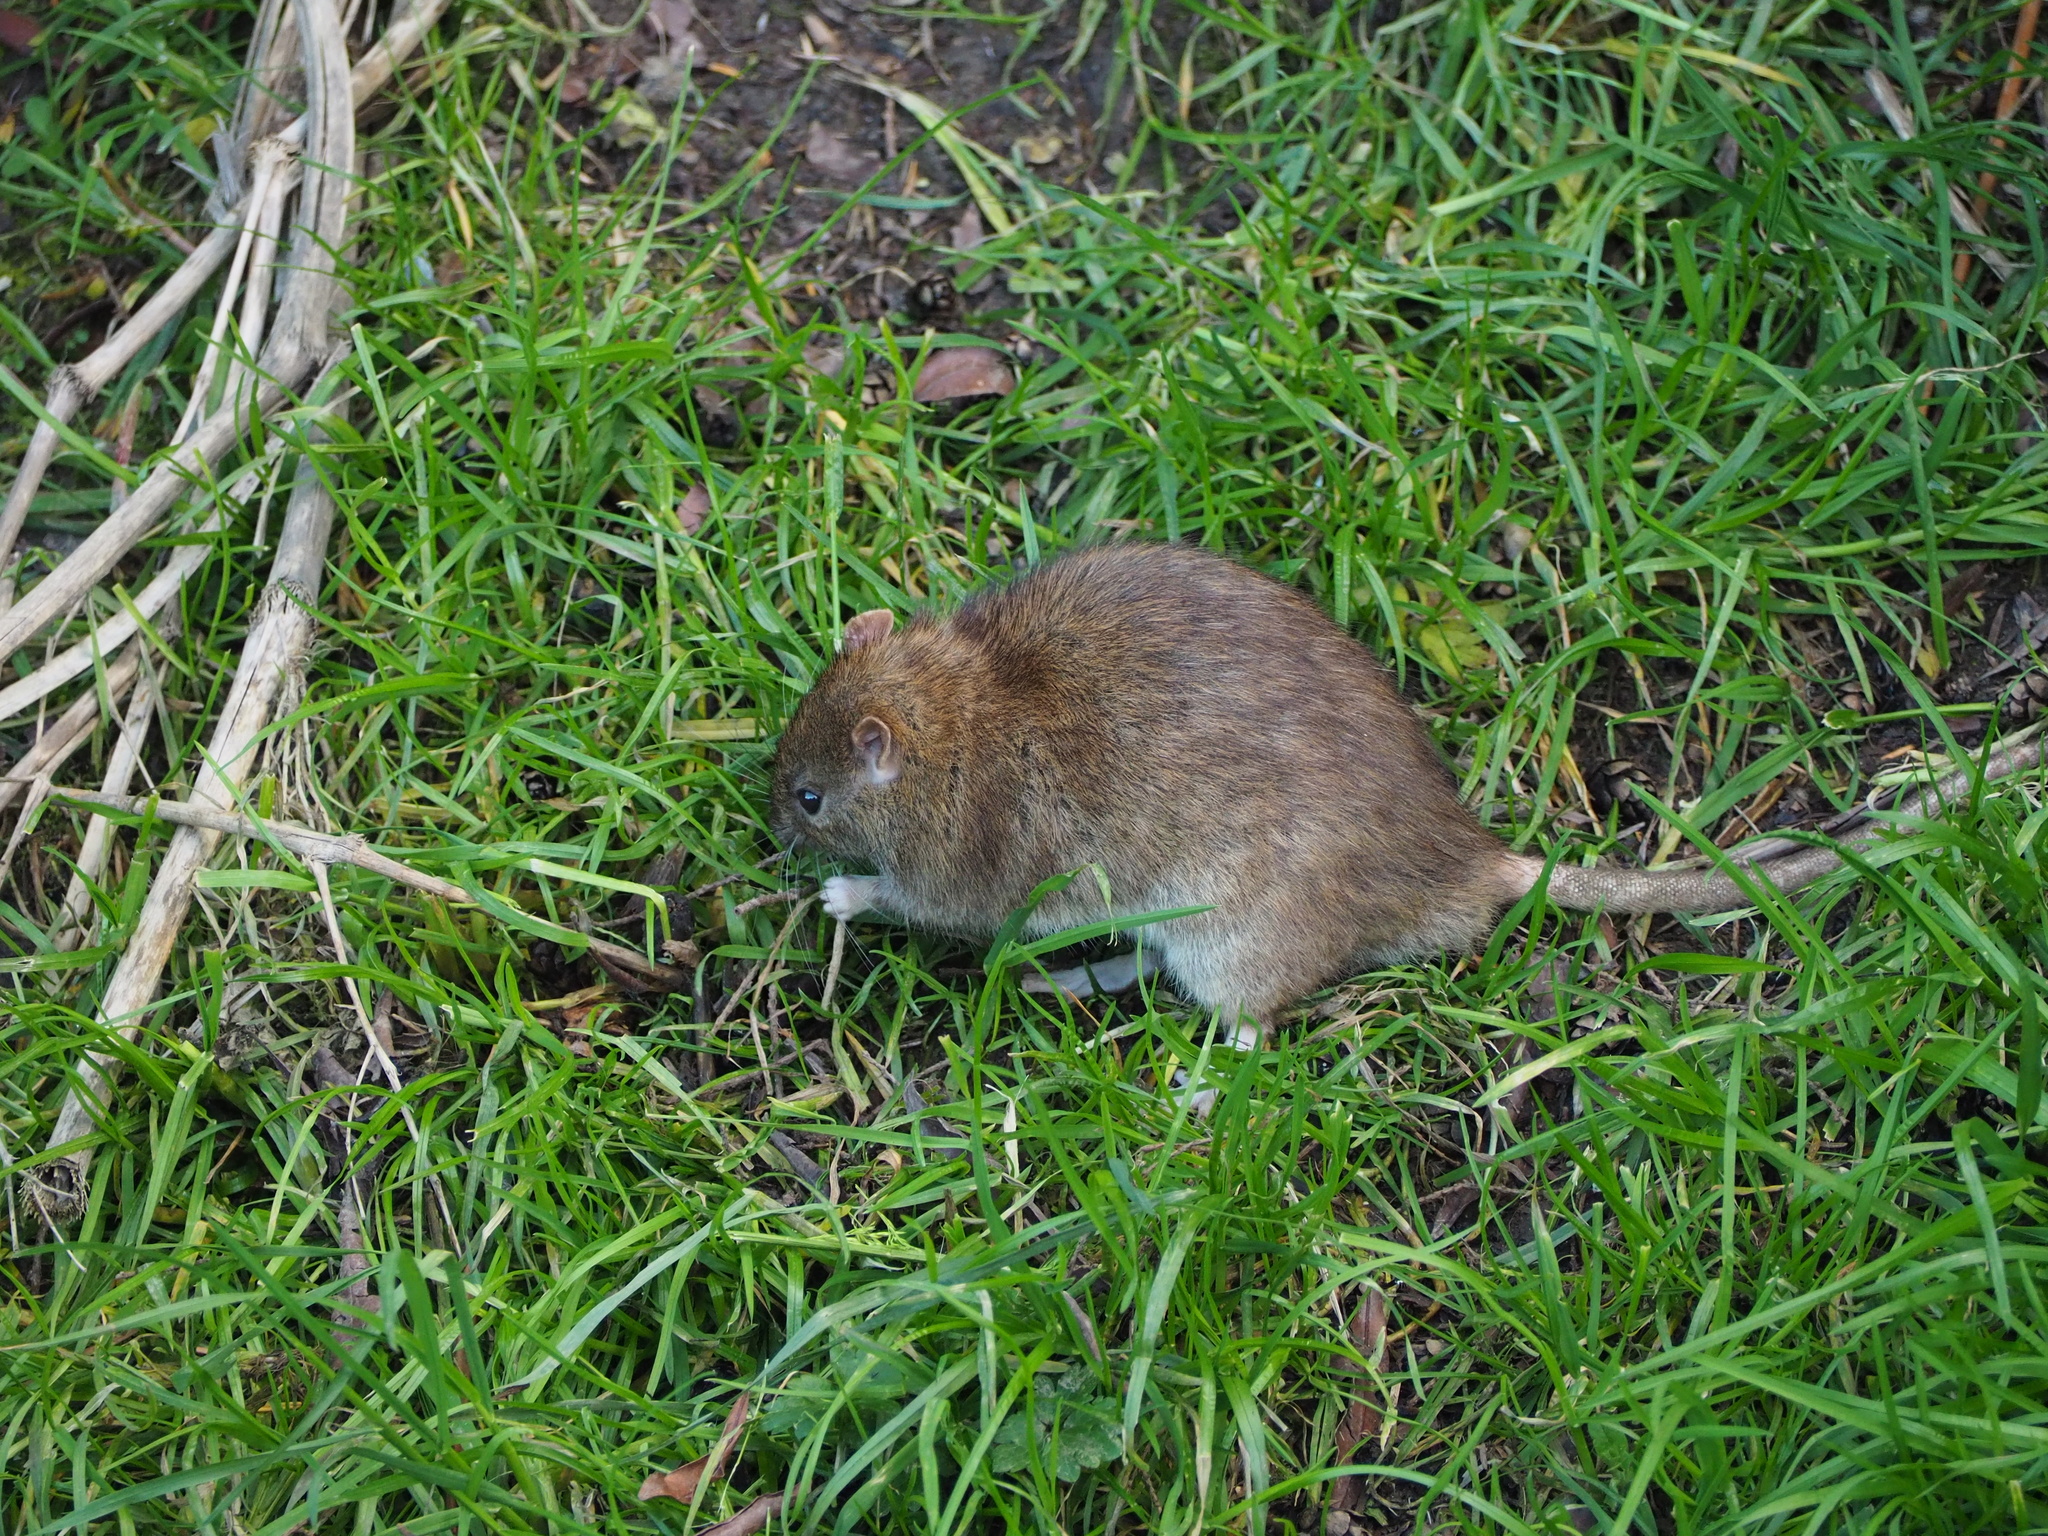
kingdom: Animalia
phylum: Chordata
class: Mammalia
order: Rodentia
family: Muridae
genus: Rattus
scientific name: Rattus norvegicus
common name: Brown rat
